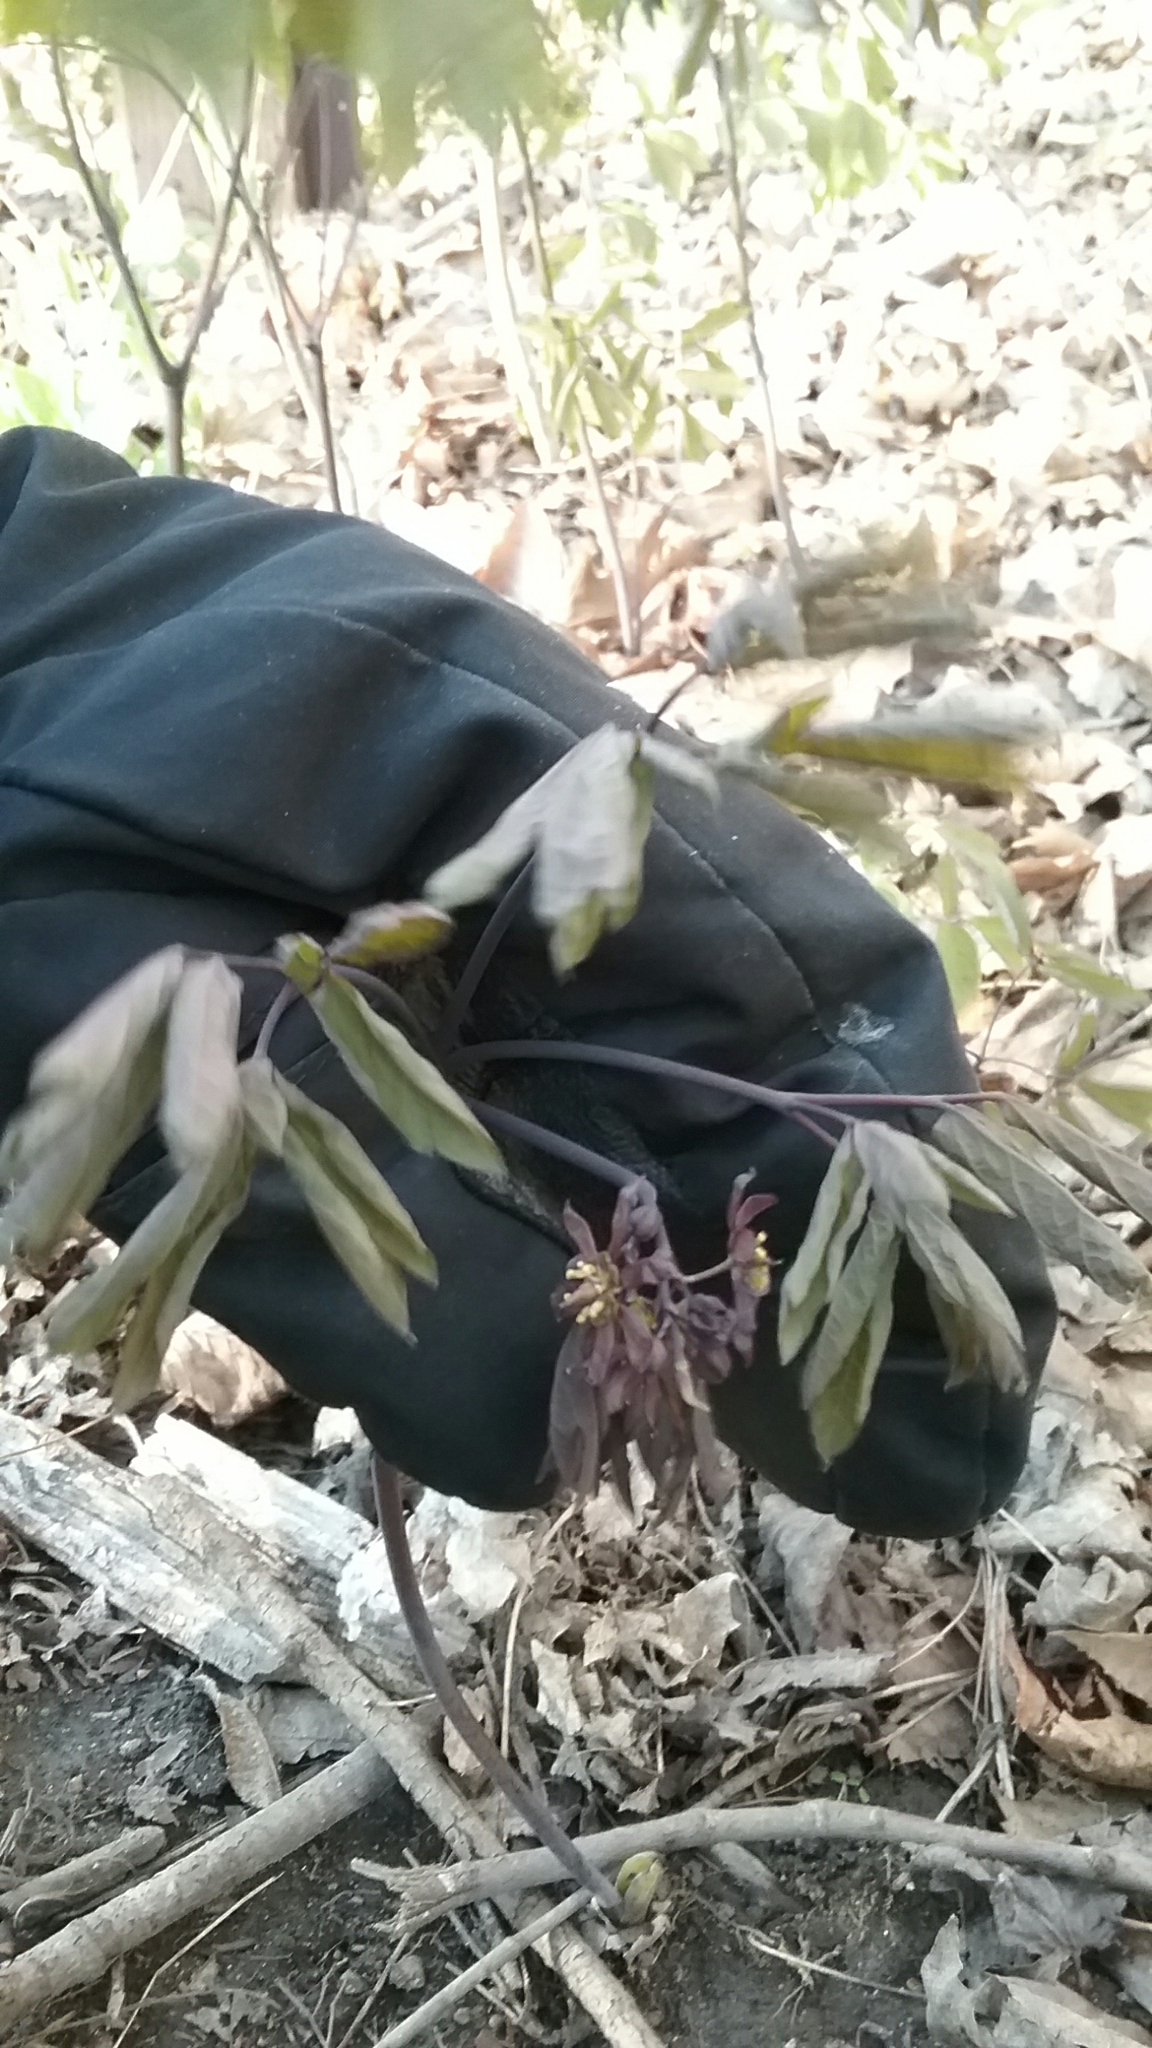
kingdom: Plantae
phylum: Tracheophyta
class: Magnoliopsida
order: Ranunculales
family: Berberidaceae
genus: Caulophyllum
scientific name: Caulophyllum giganteum
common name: Blue cohosh
